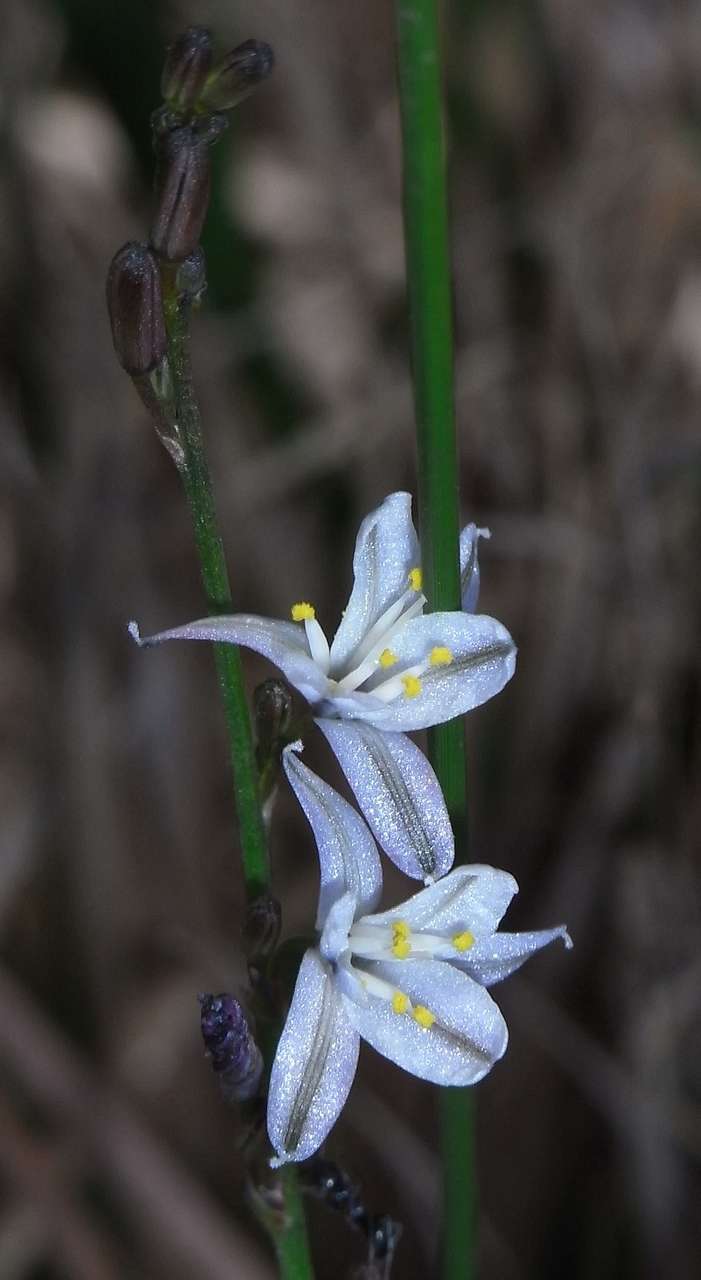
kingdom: Plantae
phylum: Tracheophyta
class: Liliopsida
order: Asparagales
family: Asphodelaceae
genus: Caesia
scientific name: Caesia parviflora
